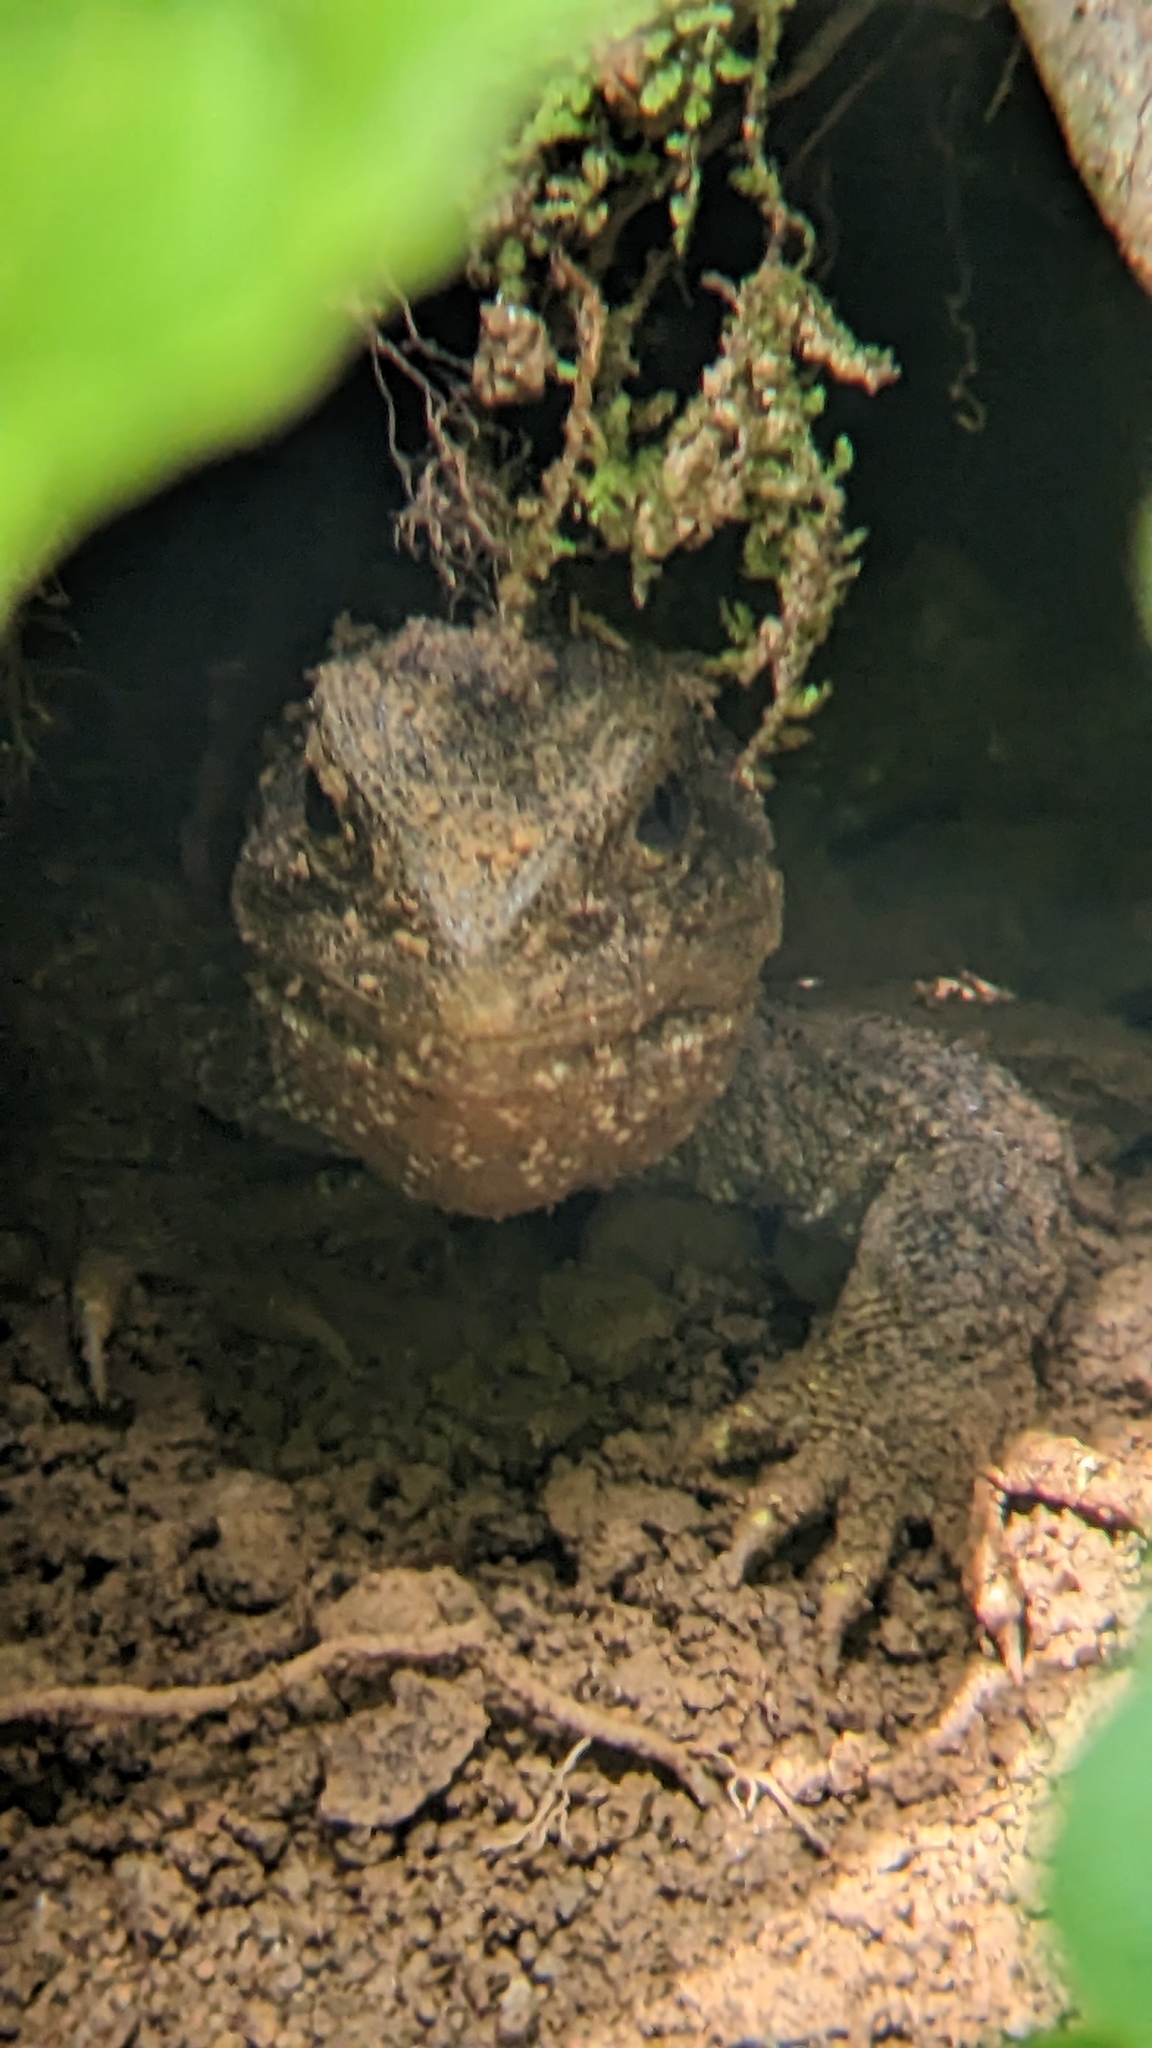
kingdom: Animalia
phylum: Chordata
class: Sphenodontia
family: Sphenodontidae
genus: Sphenodon
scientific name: Sphenodon punctatus
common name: Tuatara
